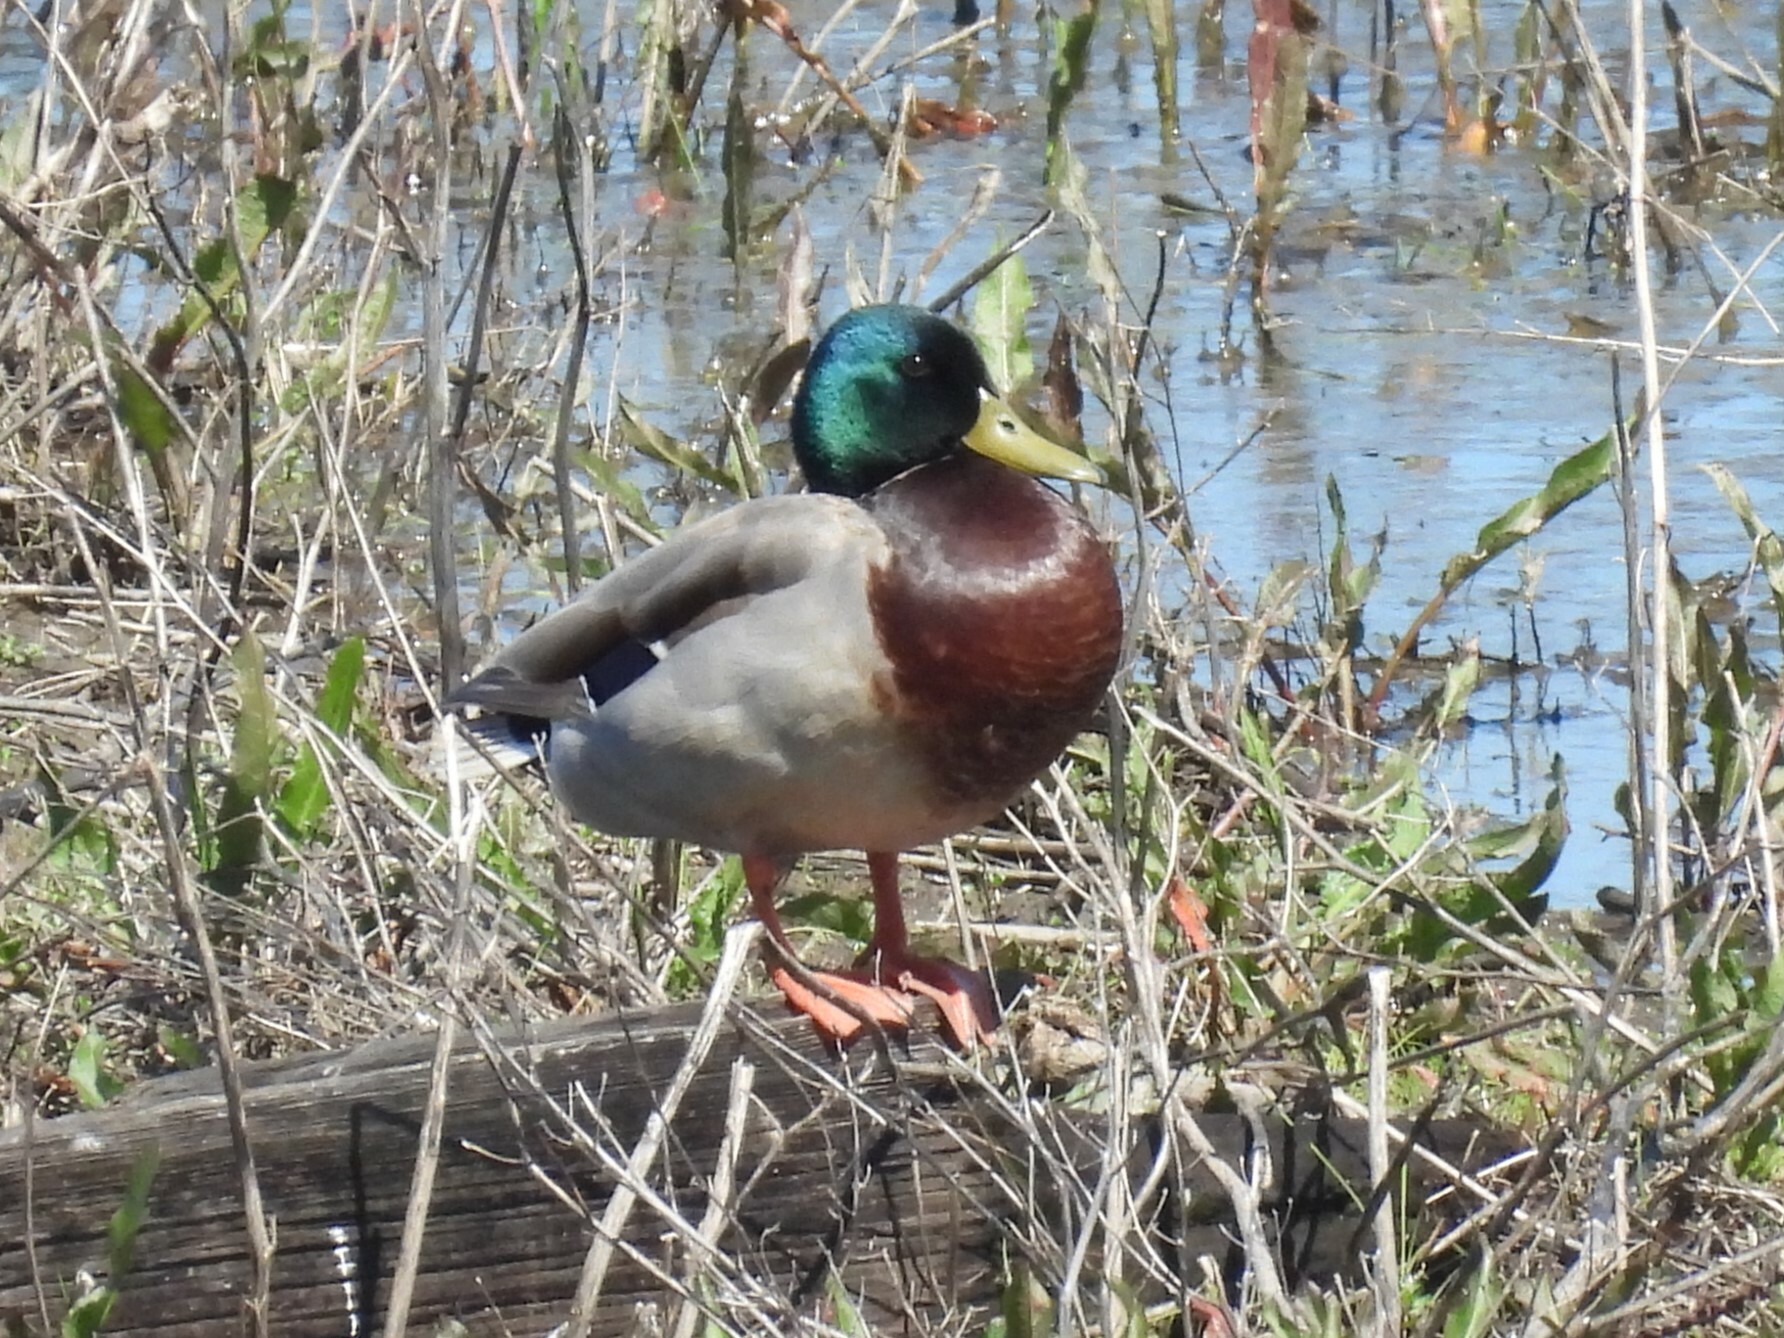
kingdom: Animalia
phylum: Chordata
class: Aves
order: Anseriformes
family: Anatidae
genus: Anas
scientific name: Anas platyrhynchos
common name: Mallard
